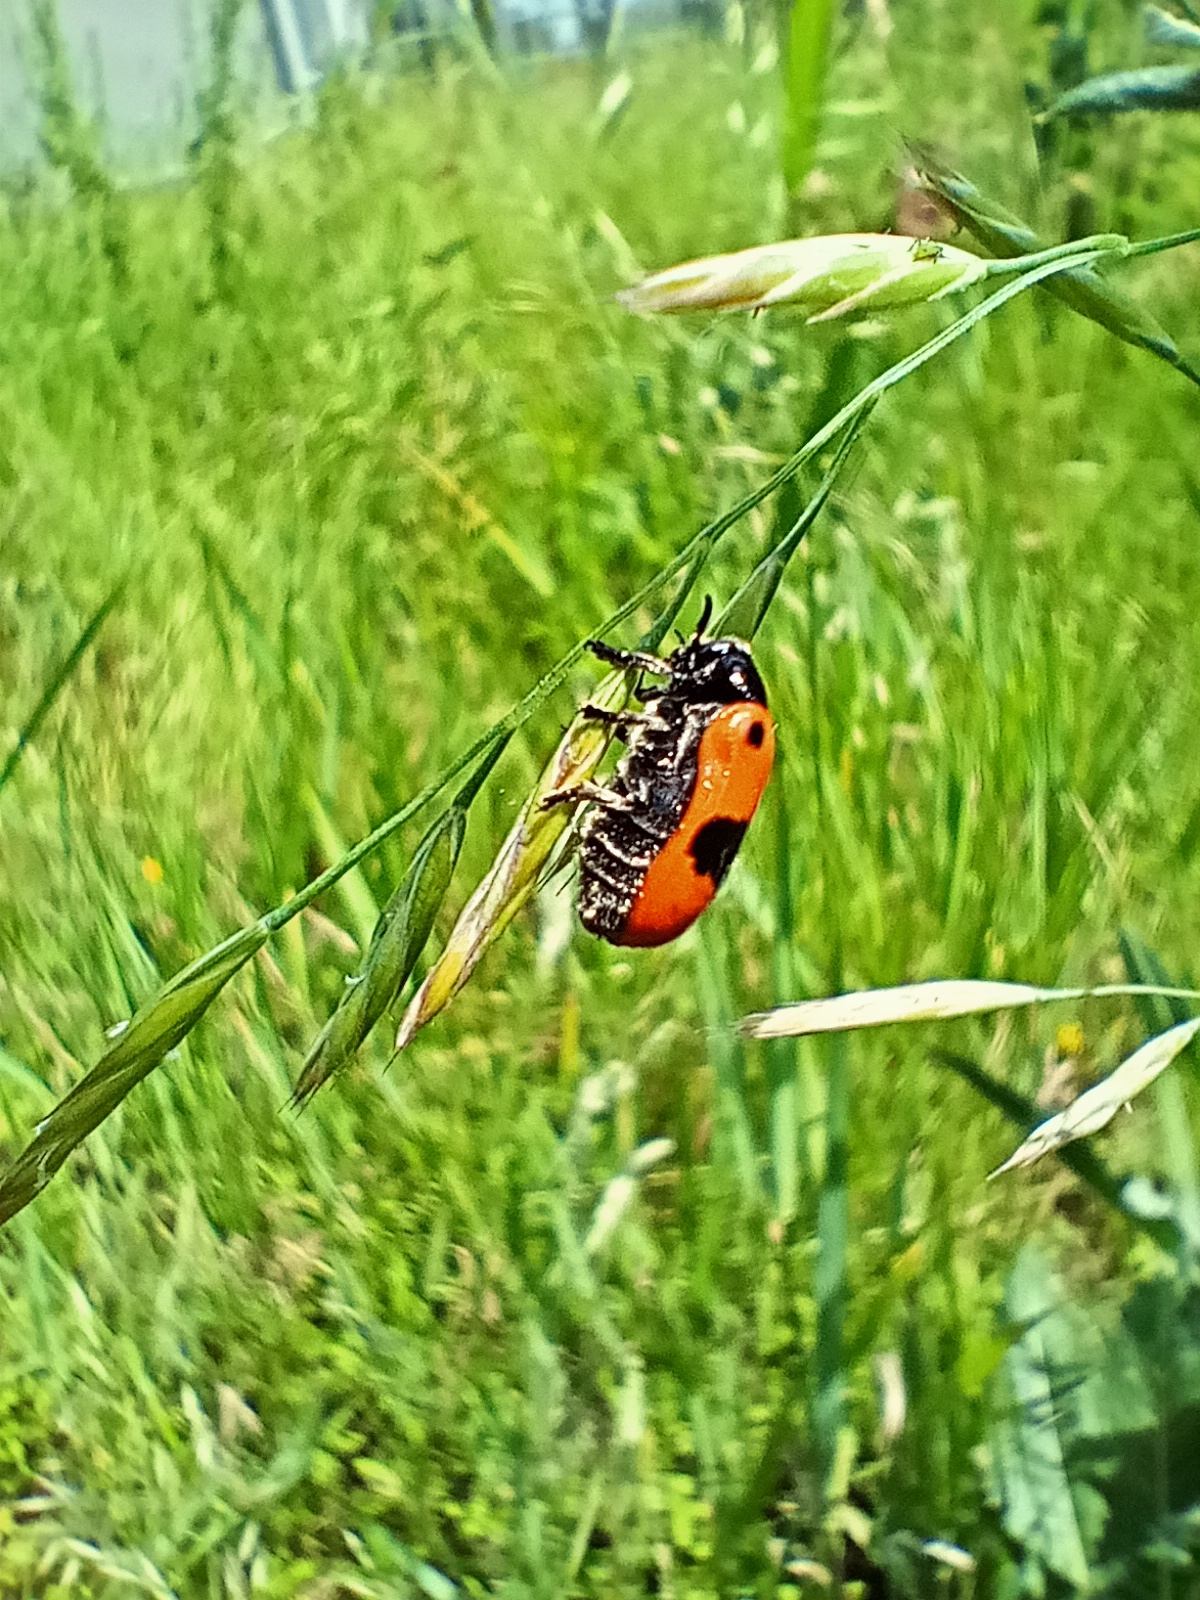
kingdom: Animalia
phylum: Arthropoda
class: Insecta
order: Coleoptera
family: Chrysomelidae
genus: Clytra
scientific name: Clytra laeviuscula
